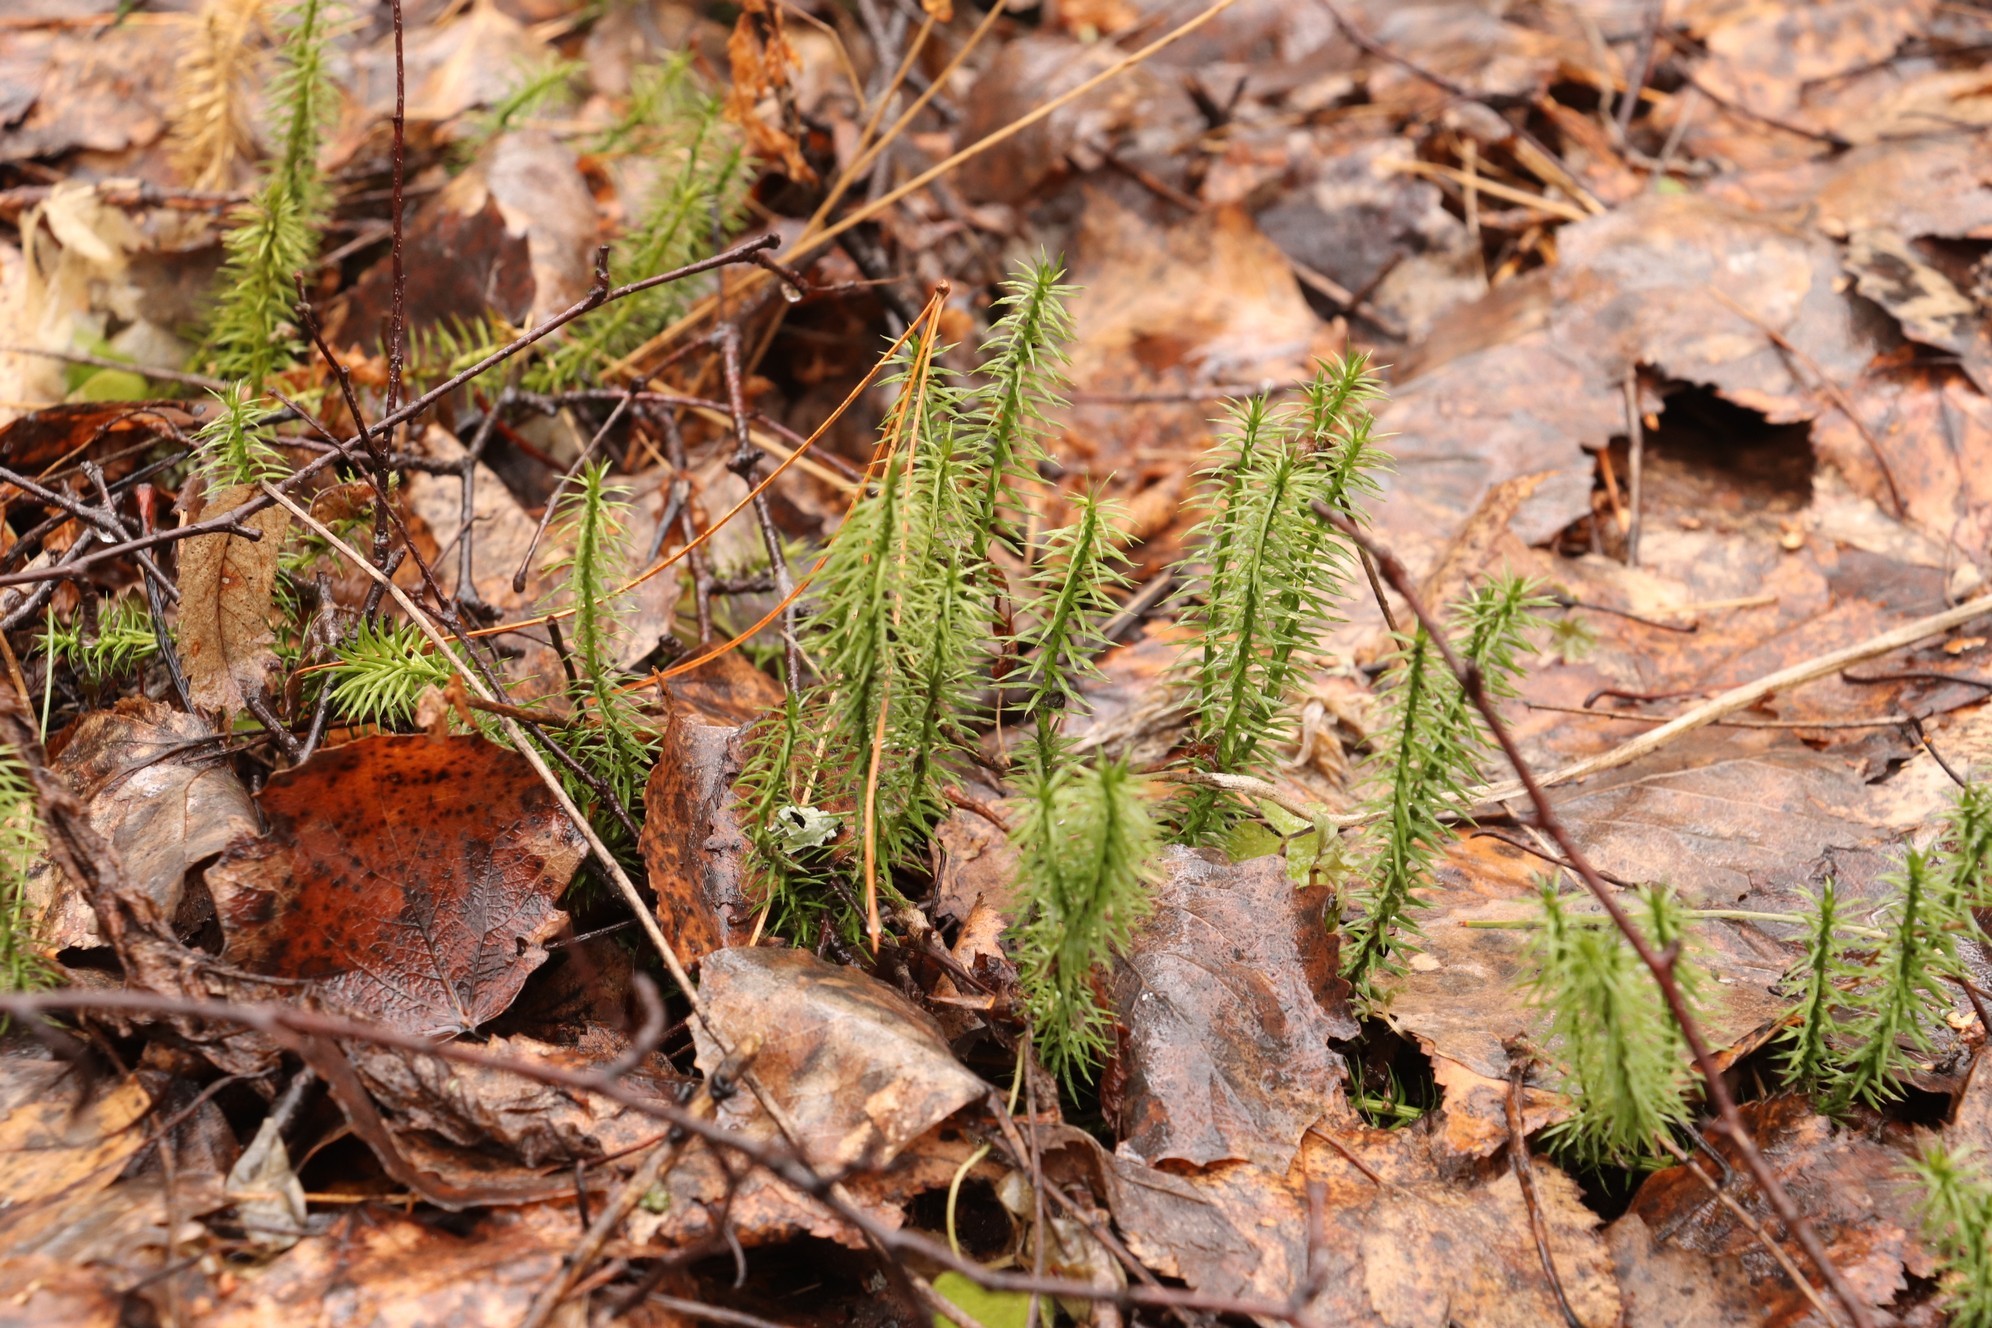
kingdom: Plantae
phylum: Tracheophyta
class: Lycopodiopsida
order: Lycopodiales
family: Lycopodiaceae
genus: Spinulum
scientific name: Spinulum annotinum
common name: Interrupted club-moss
